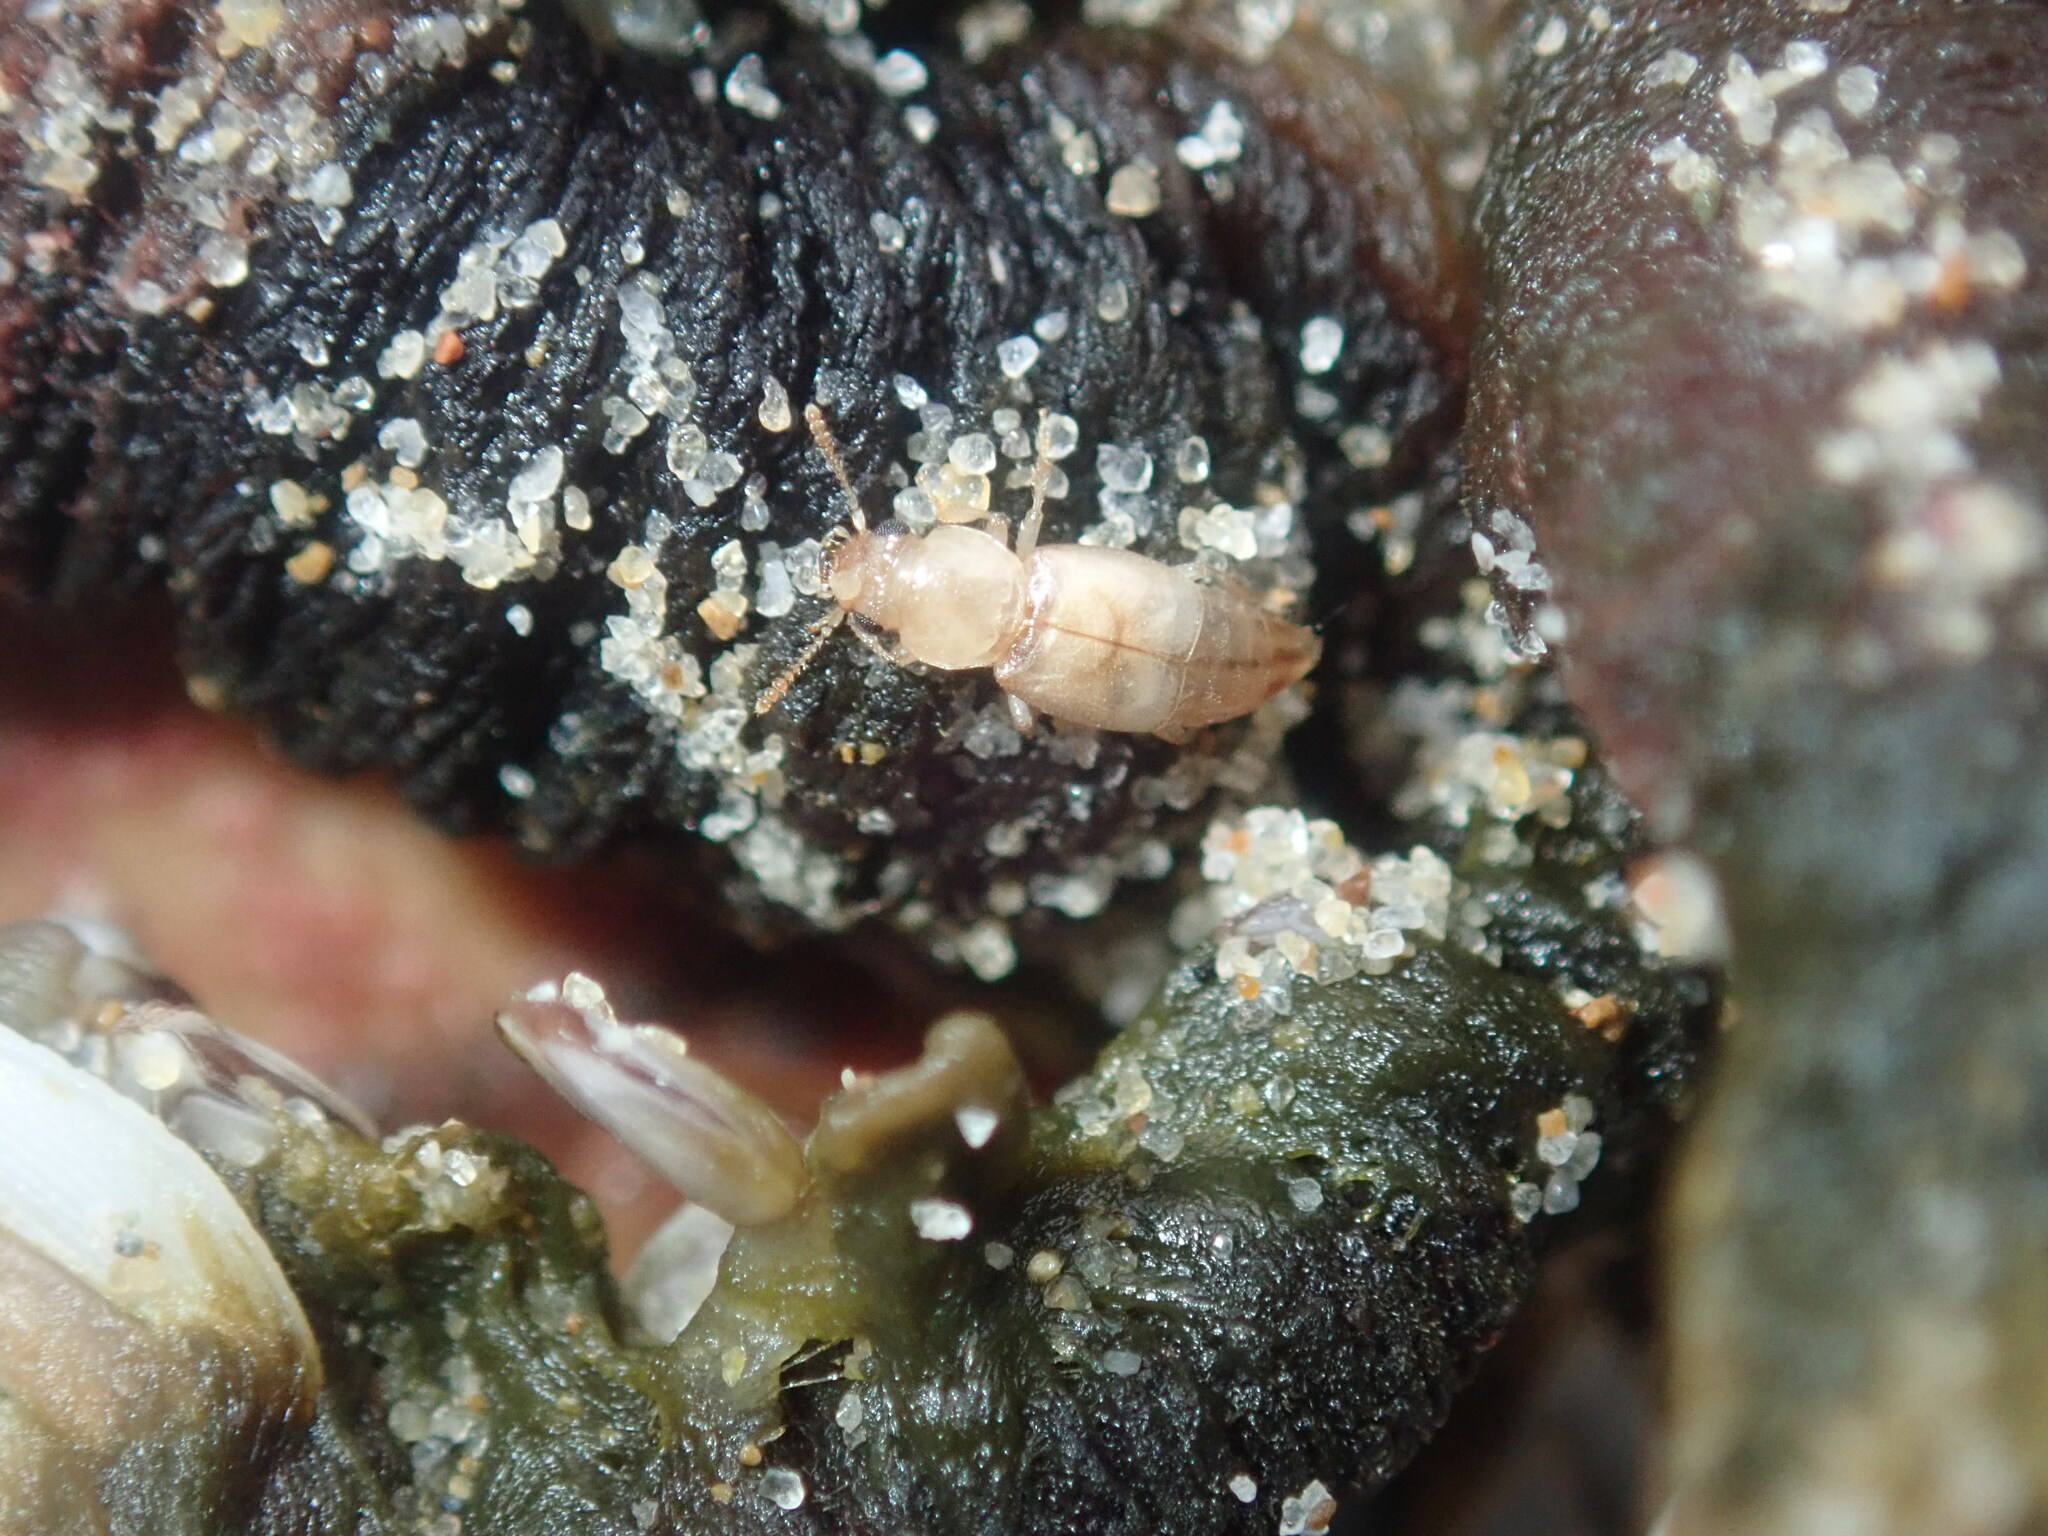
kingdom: Animalia
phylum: Arthropoda
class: Insecta
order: Coleoptera
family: Staphylinidae
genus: Sartallus
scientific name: Sartallus signatus
